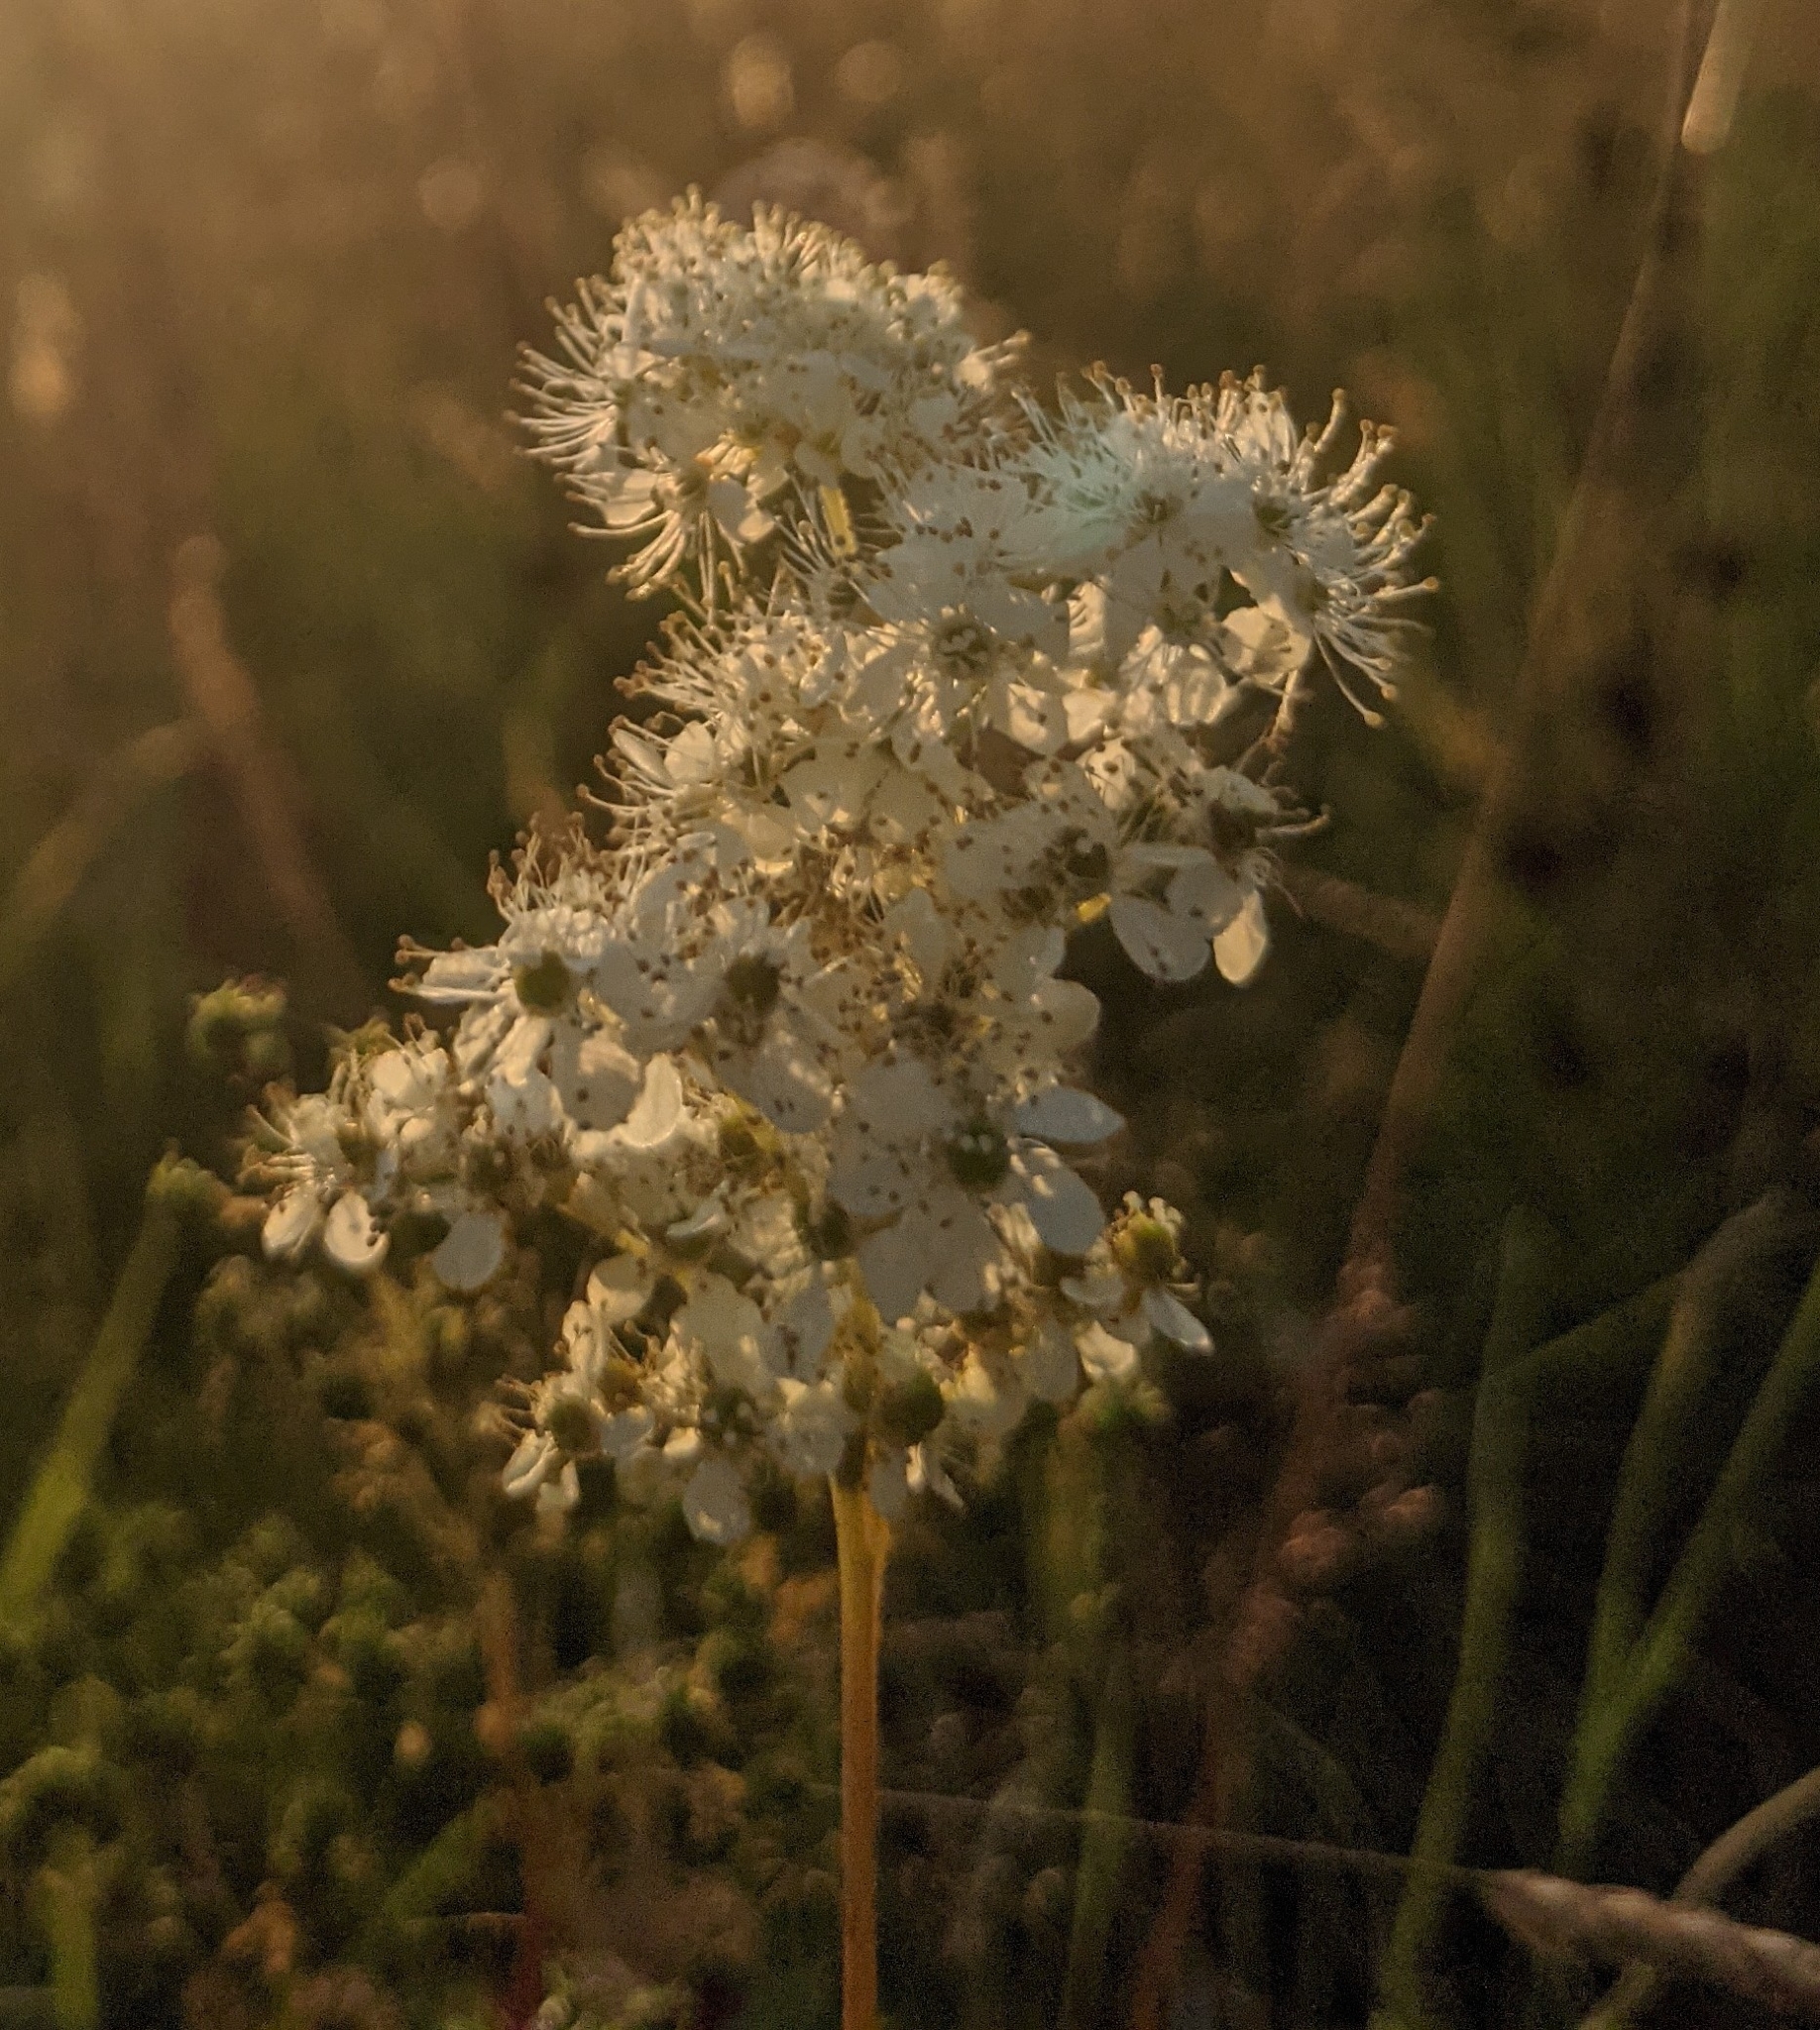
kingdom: Plantae
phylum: Tracheophyta
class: Magnoliopsida
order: Rosales
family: Rosaceae
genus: Filipendula
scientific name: Filipendula ulmaria
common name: Meadowsweet
